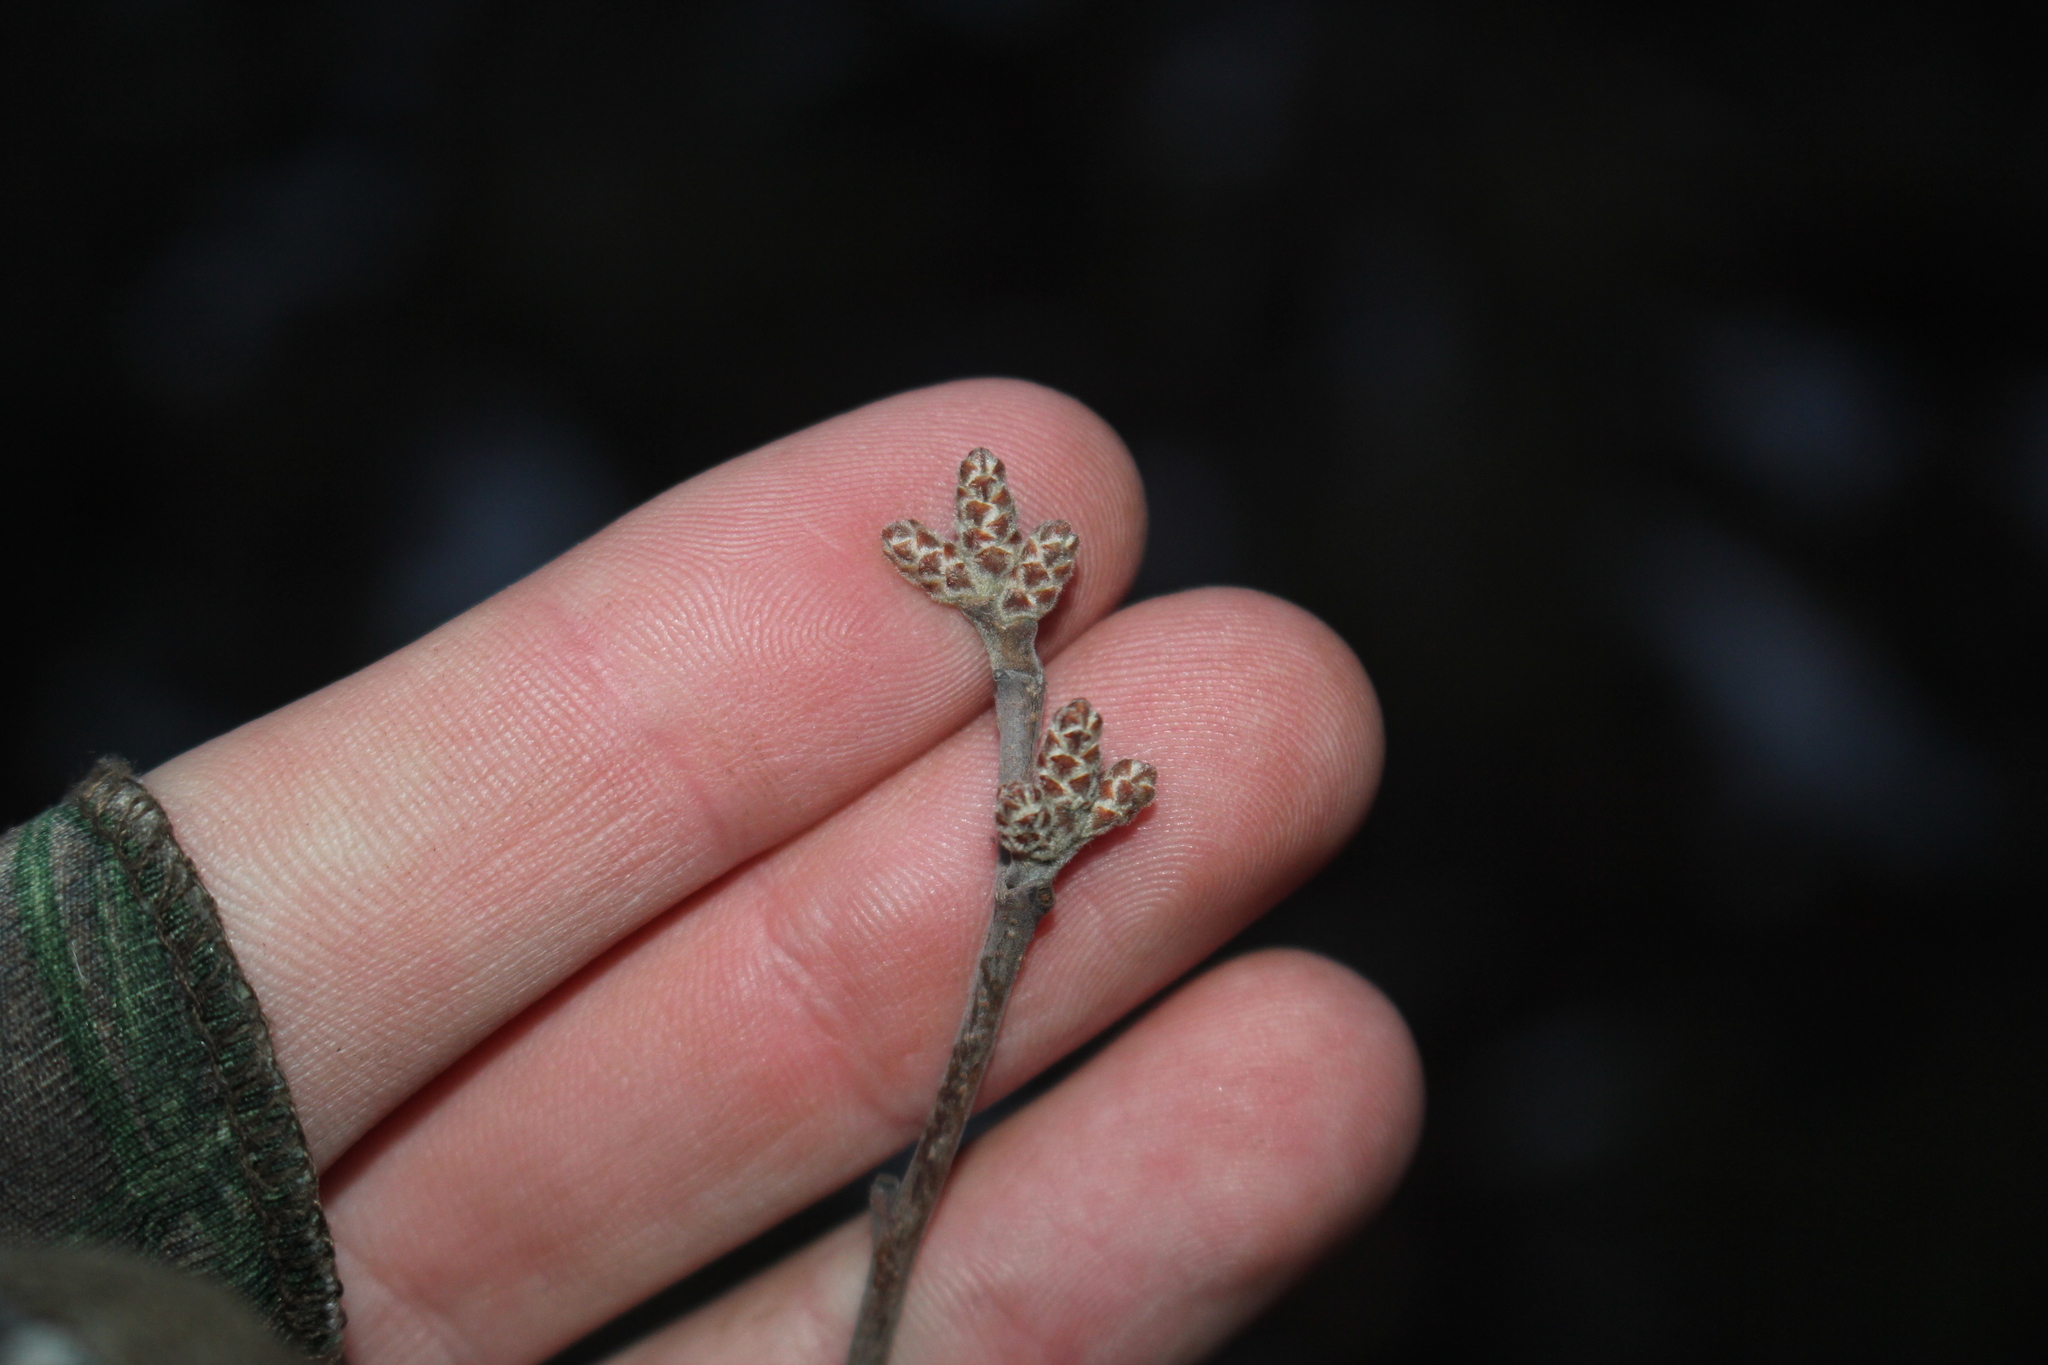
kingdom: Plantae
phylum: Tracheophyta
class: Magnoliopsida
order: Sapindales
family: Anacardiaceae
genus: Rhus
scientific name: Rhus aromatica
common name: Aromatic sumac
